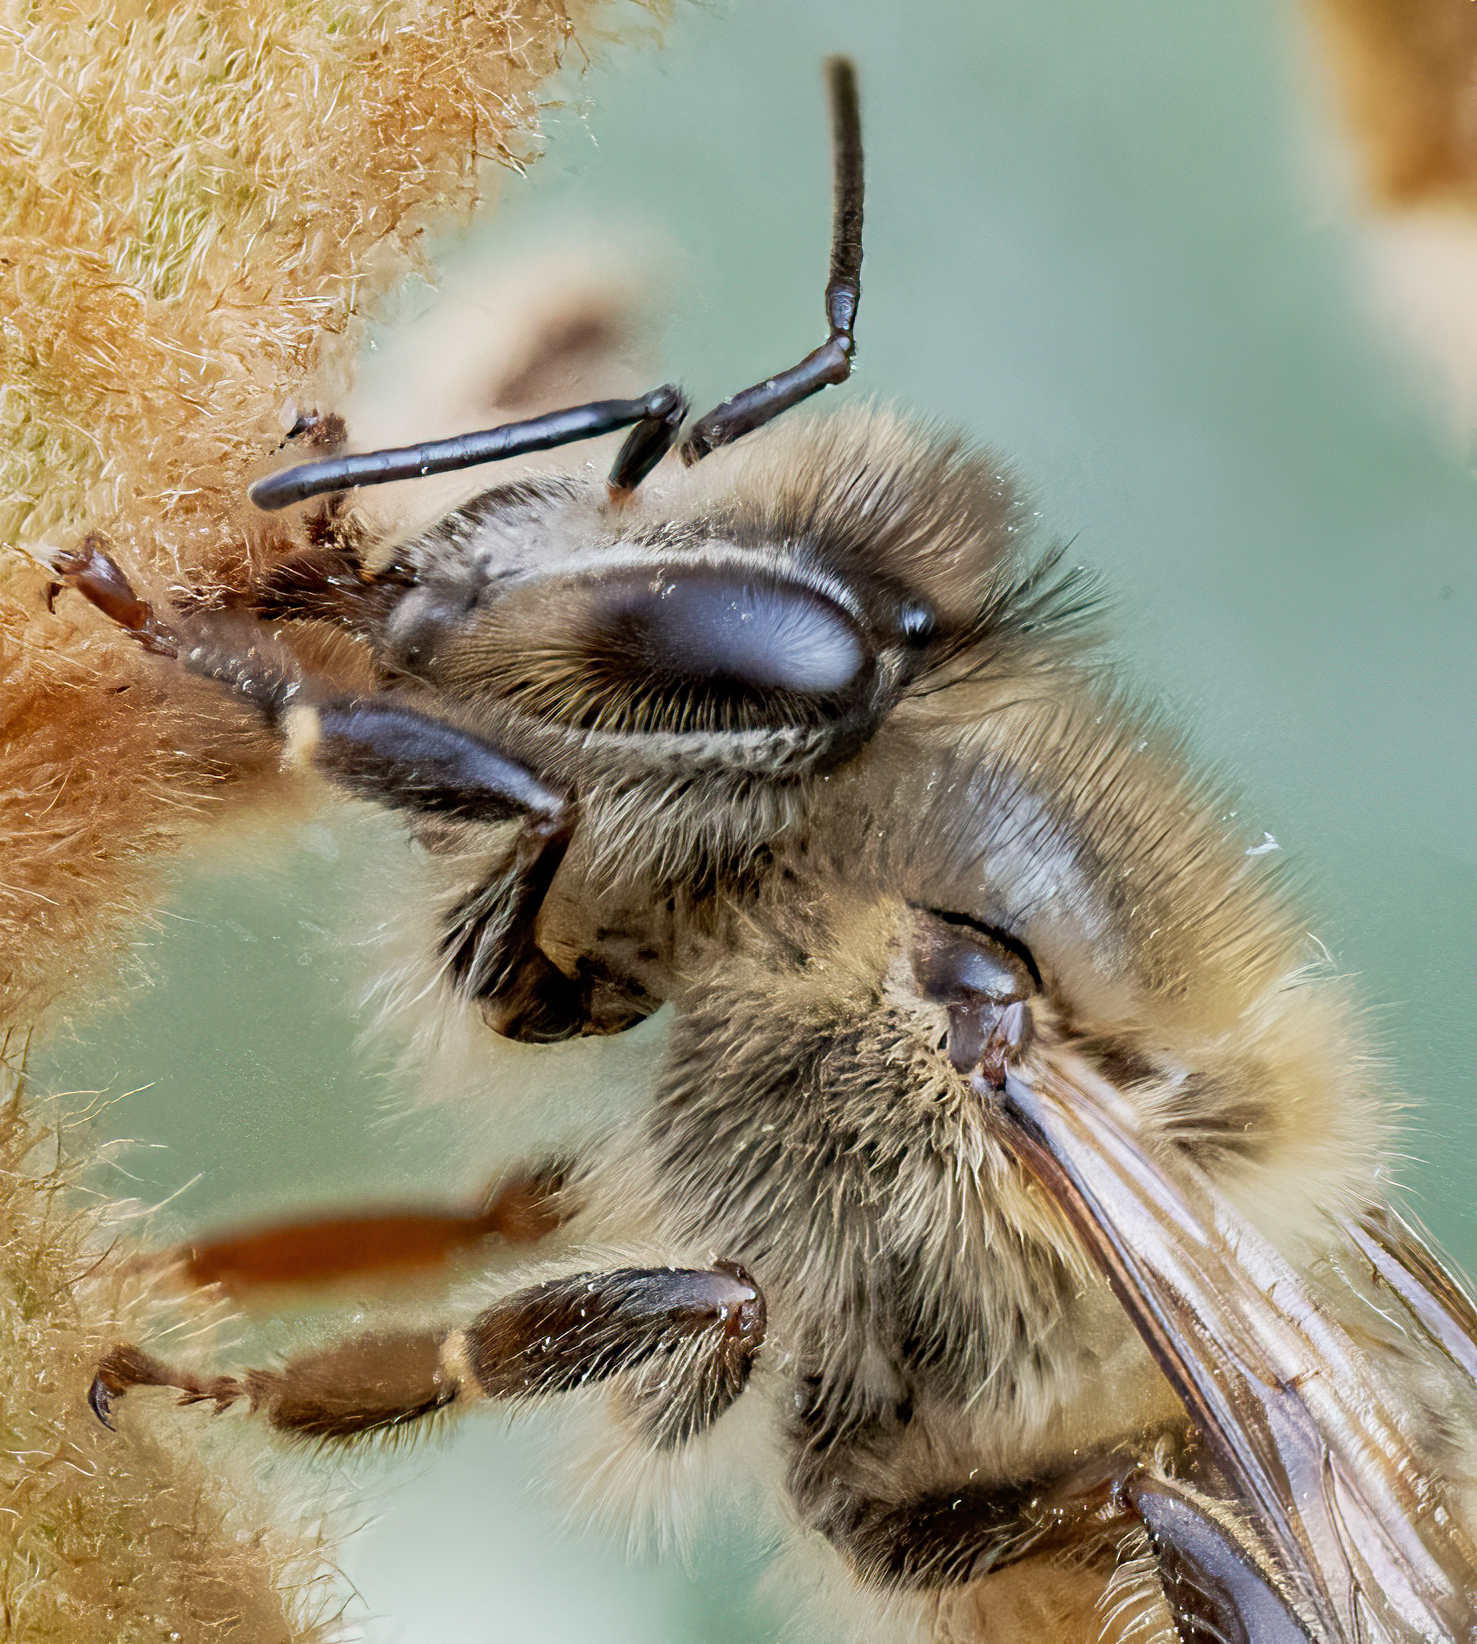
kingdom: Animalia
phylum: Arthropoda
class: Insecta
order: Hymenoptera
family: Apidae
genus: Apis
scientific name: Apis mellifera
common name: Honey bee
